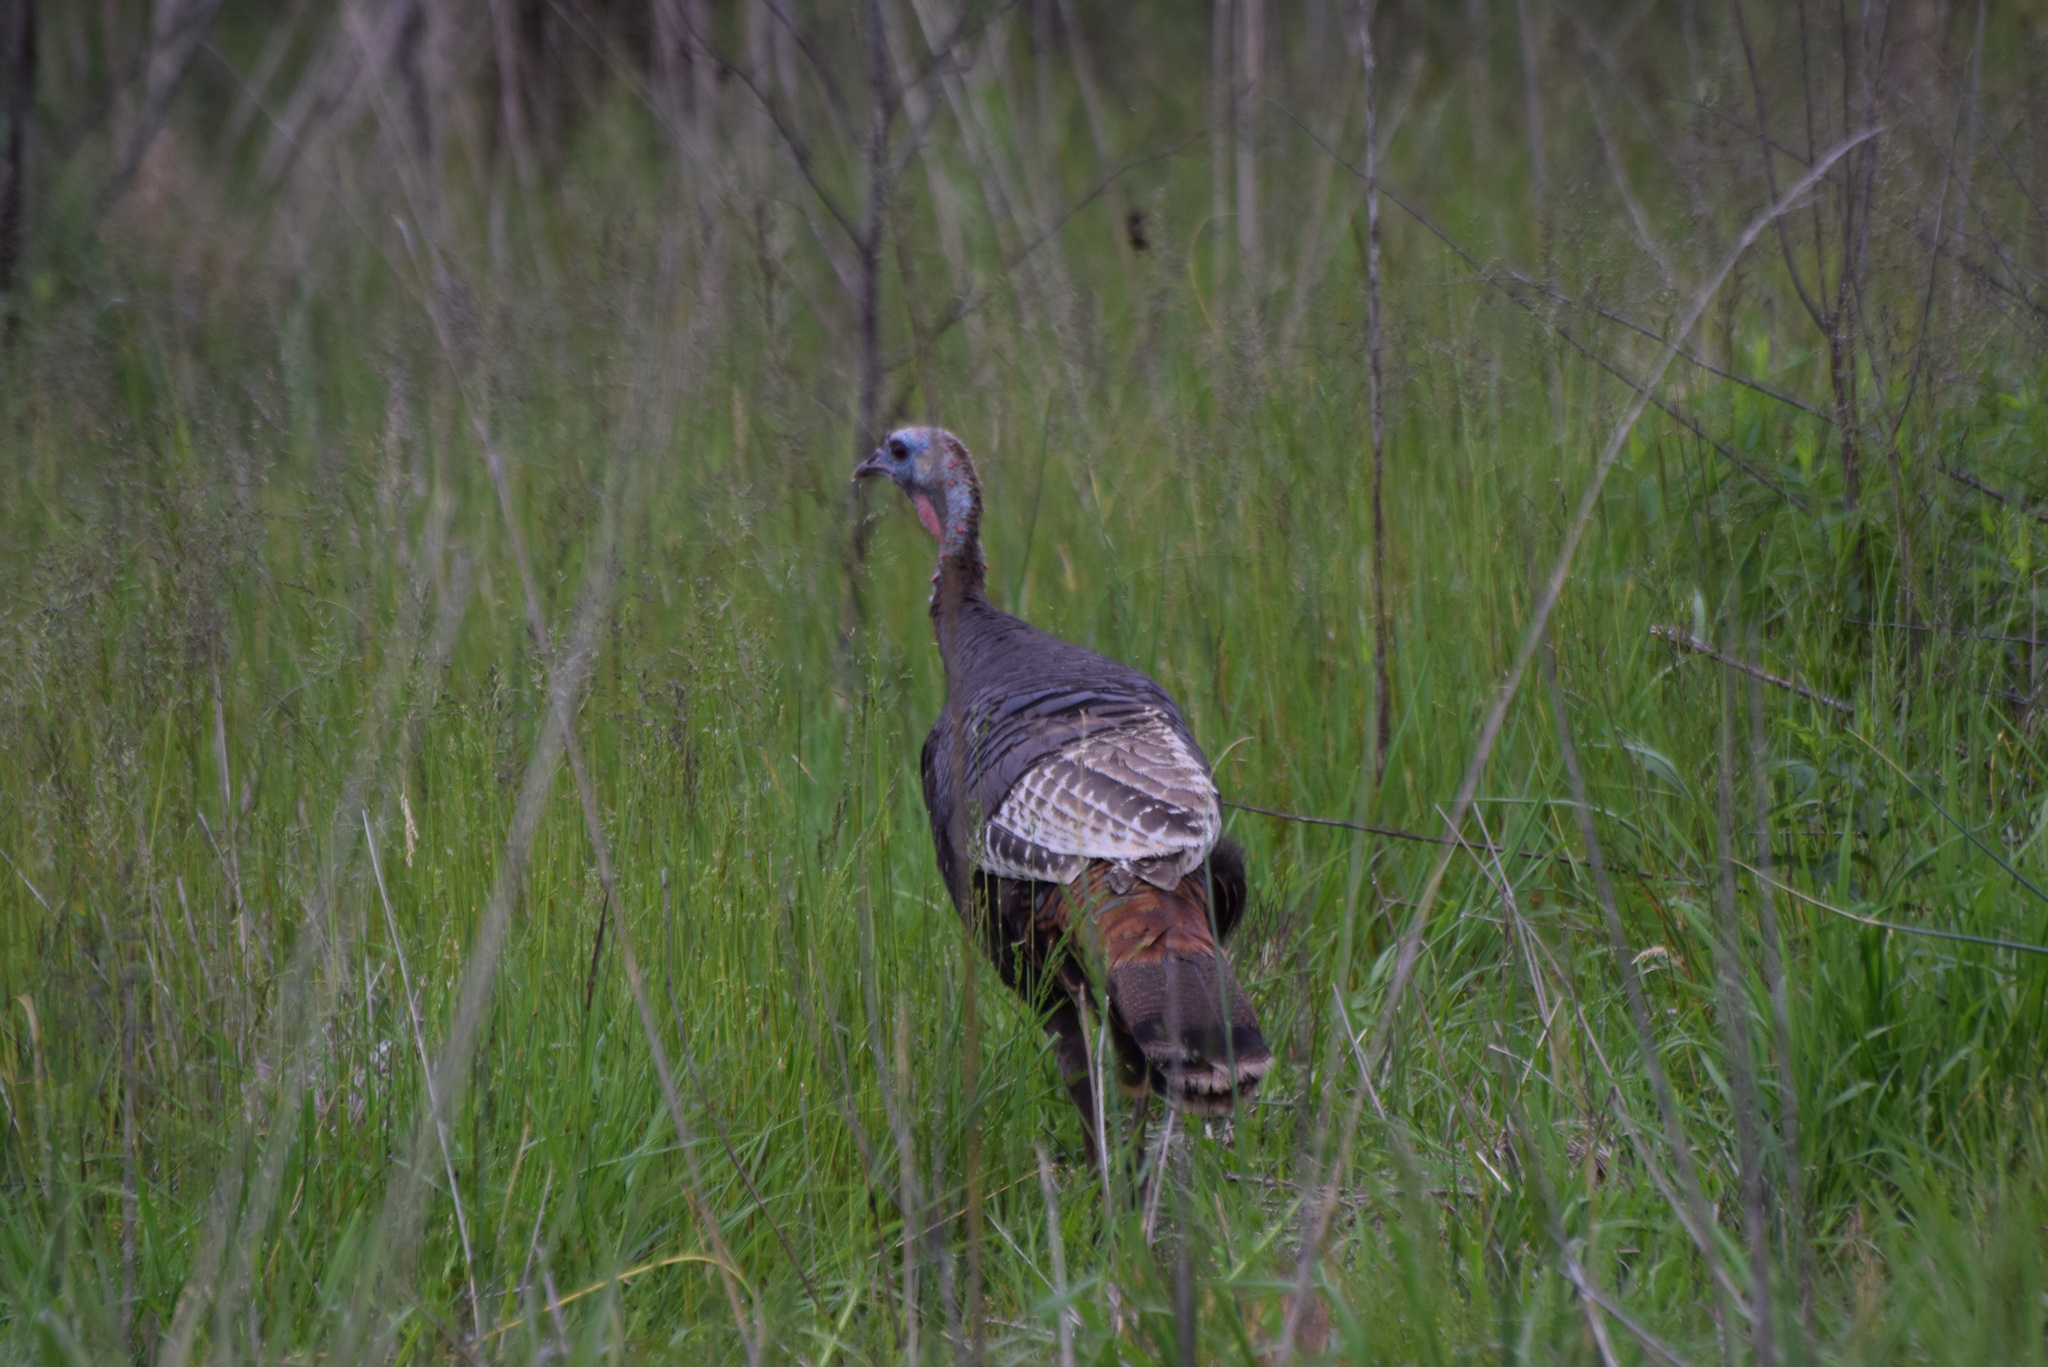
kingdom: Animalia
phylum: Chordata
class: Aves
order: Galliformes
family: Phasianidae
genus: Meleagris
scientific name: Meleagris gallopavo
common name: Wild turkey
